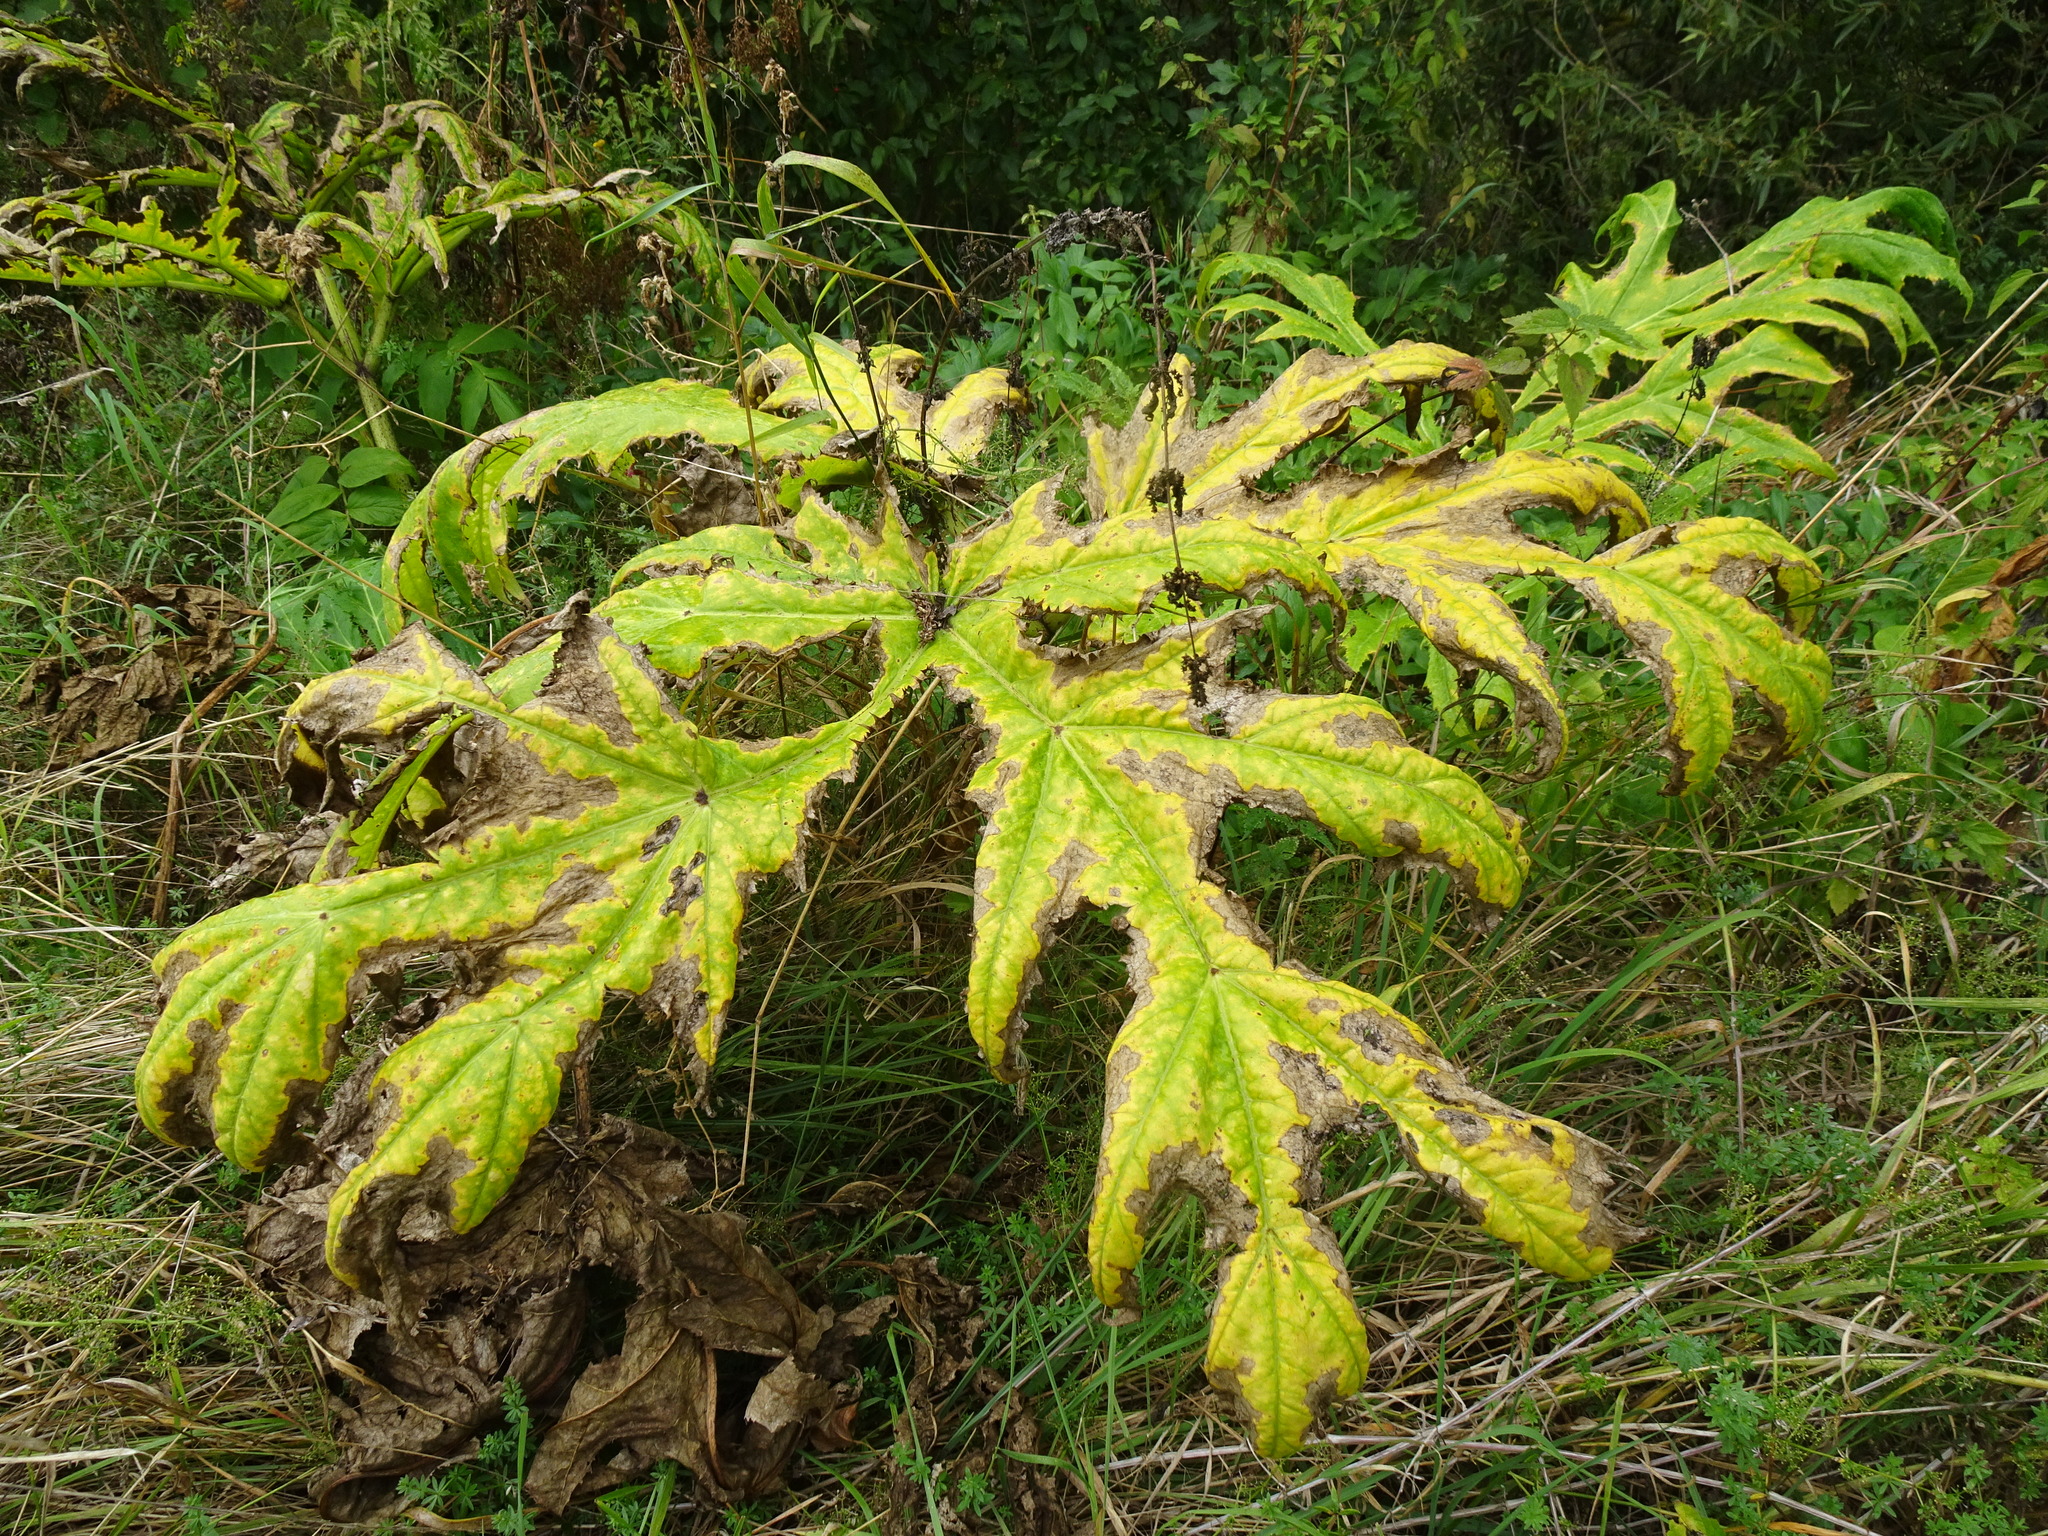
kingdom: Plantae
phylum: Tracheophyta
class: Magnoliopsida
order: Apiales
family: Apiaceae
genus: Heracleum
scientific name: Heracleum mantegazzianum
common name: Giant hogweed
